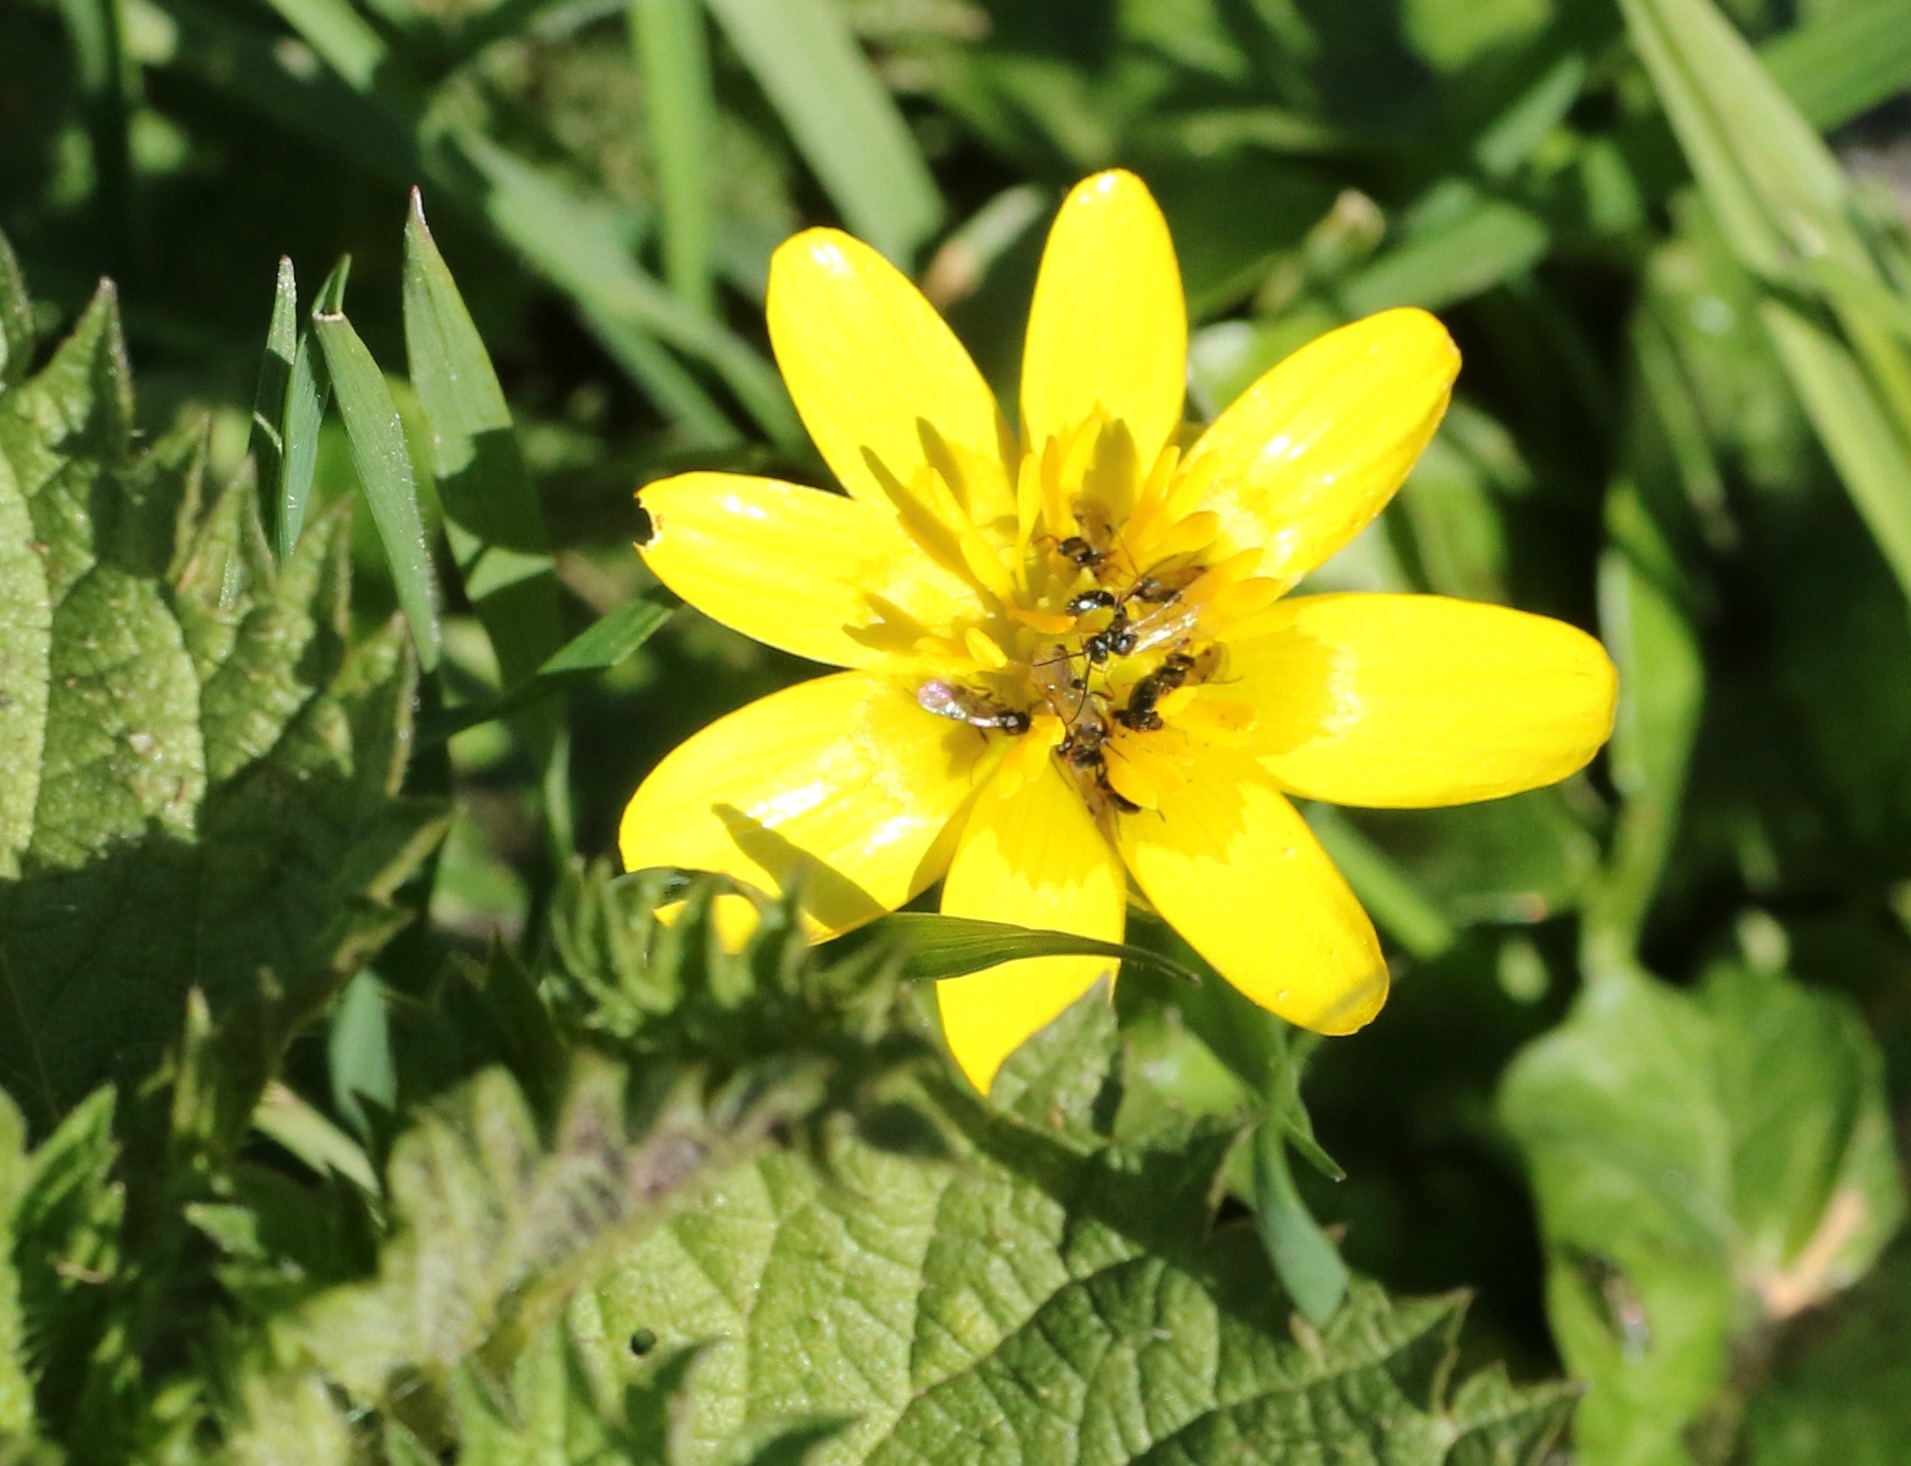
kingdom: Plantae
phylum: Tracheophyta
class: Magnoliopsida
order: Ranunculales
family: Ranunculaceae
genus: Ficaria
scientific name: Ficaria verna
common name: Lesser celandine
